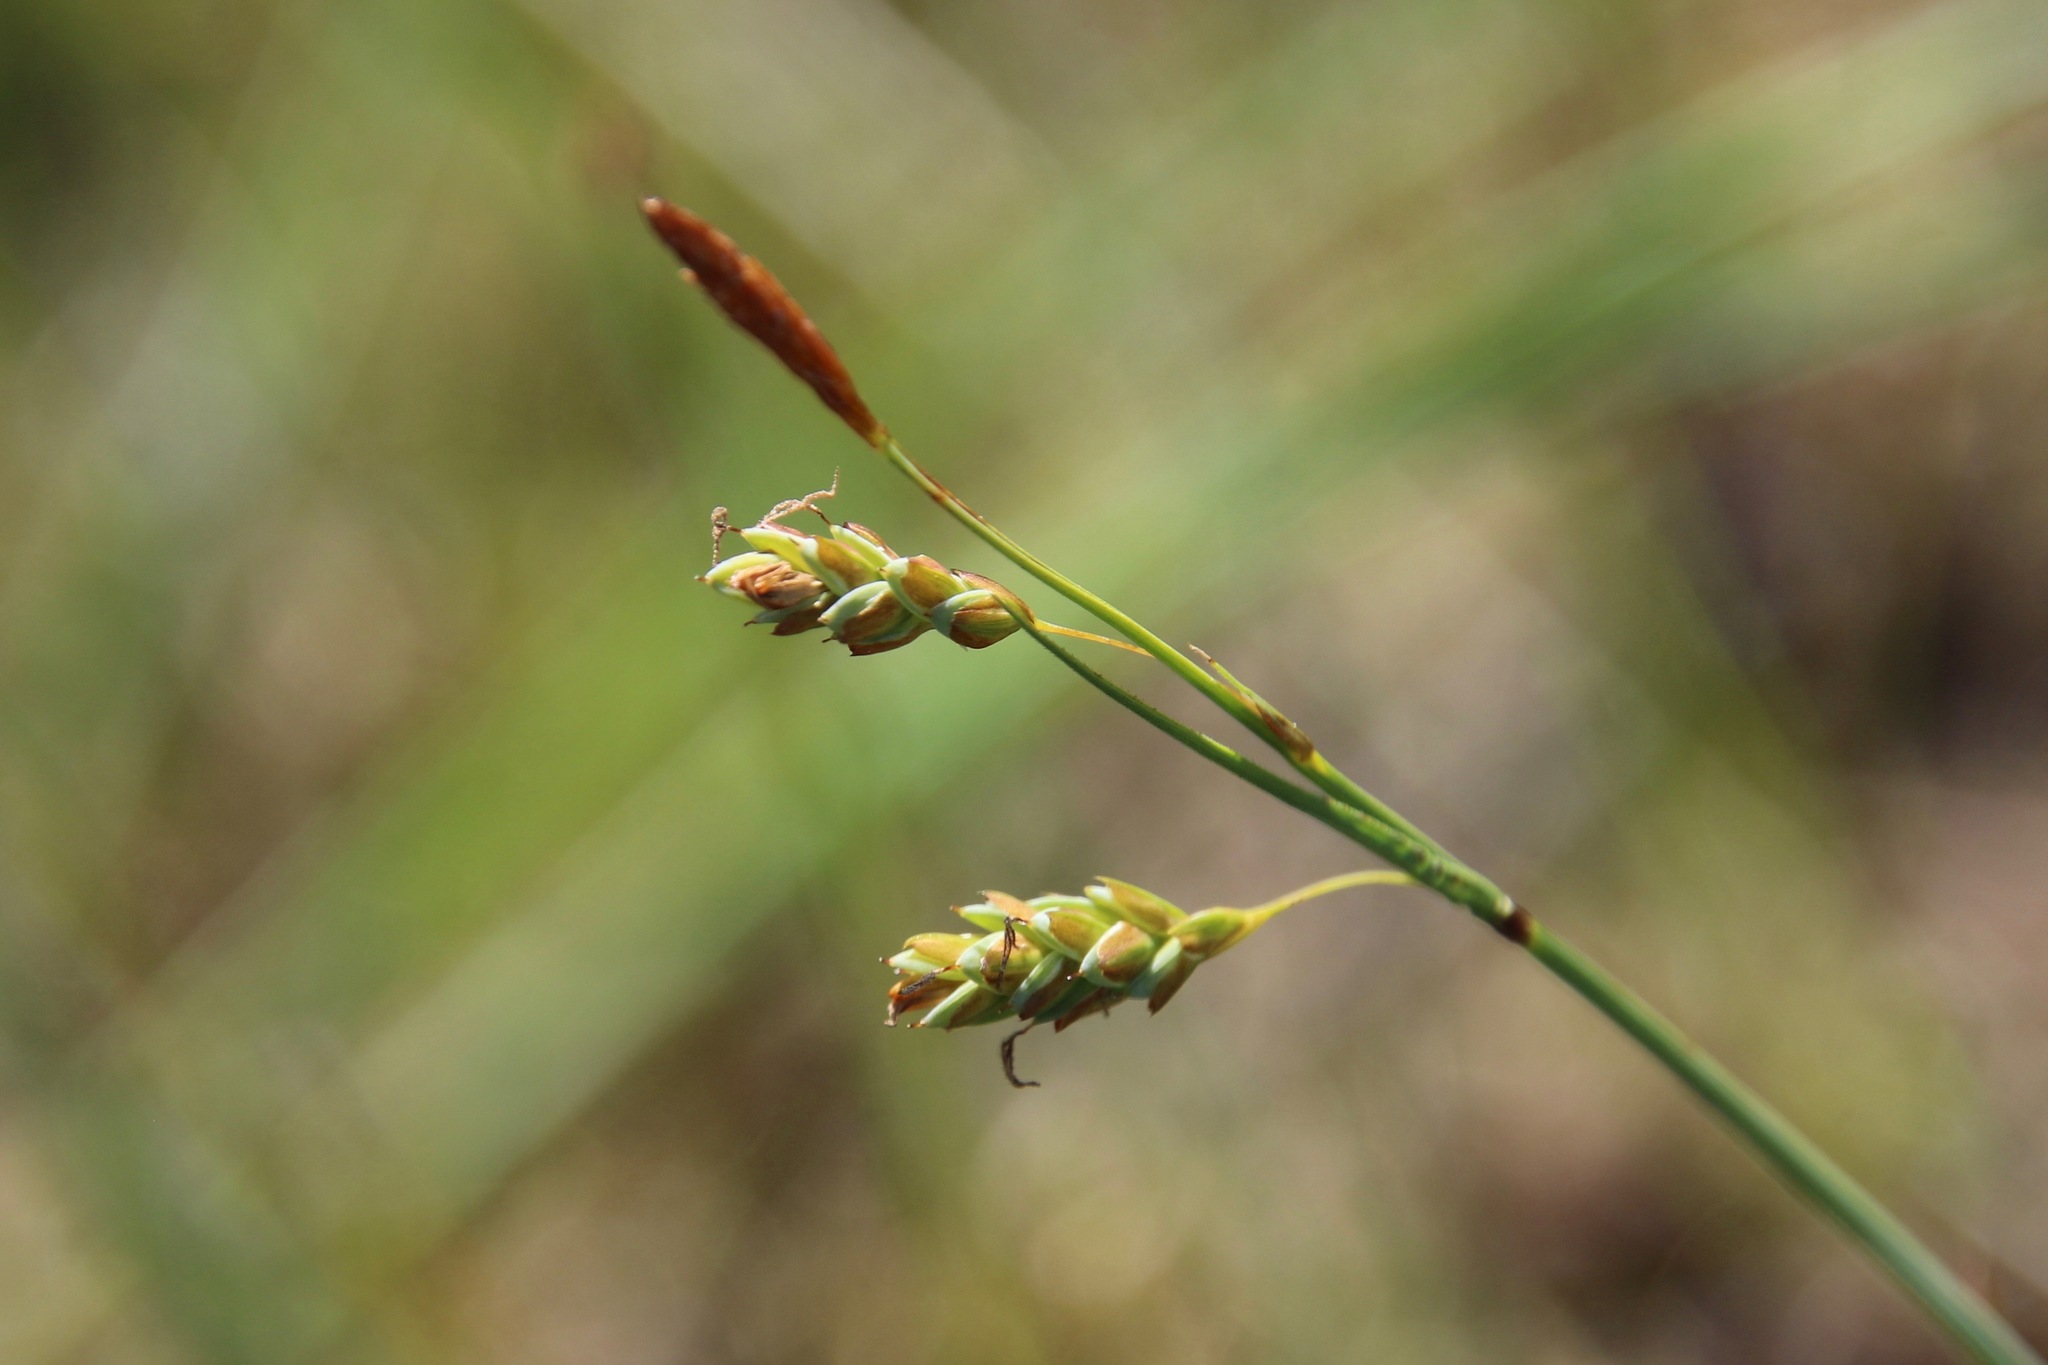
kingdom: Plantae
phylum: Tracheophyta
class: Liliopsida
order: Poales
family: Cyperaceae
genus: Carex
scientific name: Carex limosa
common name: Bog sedge
